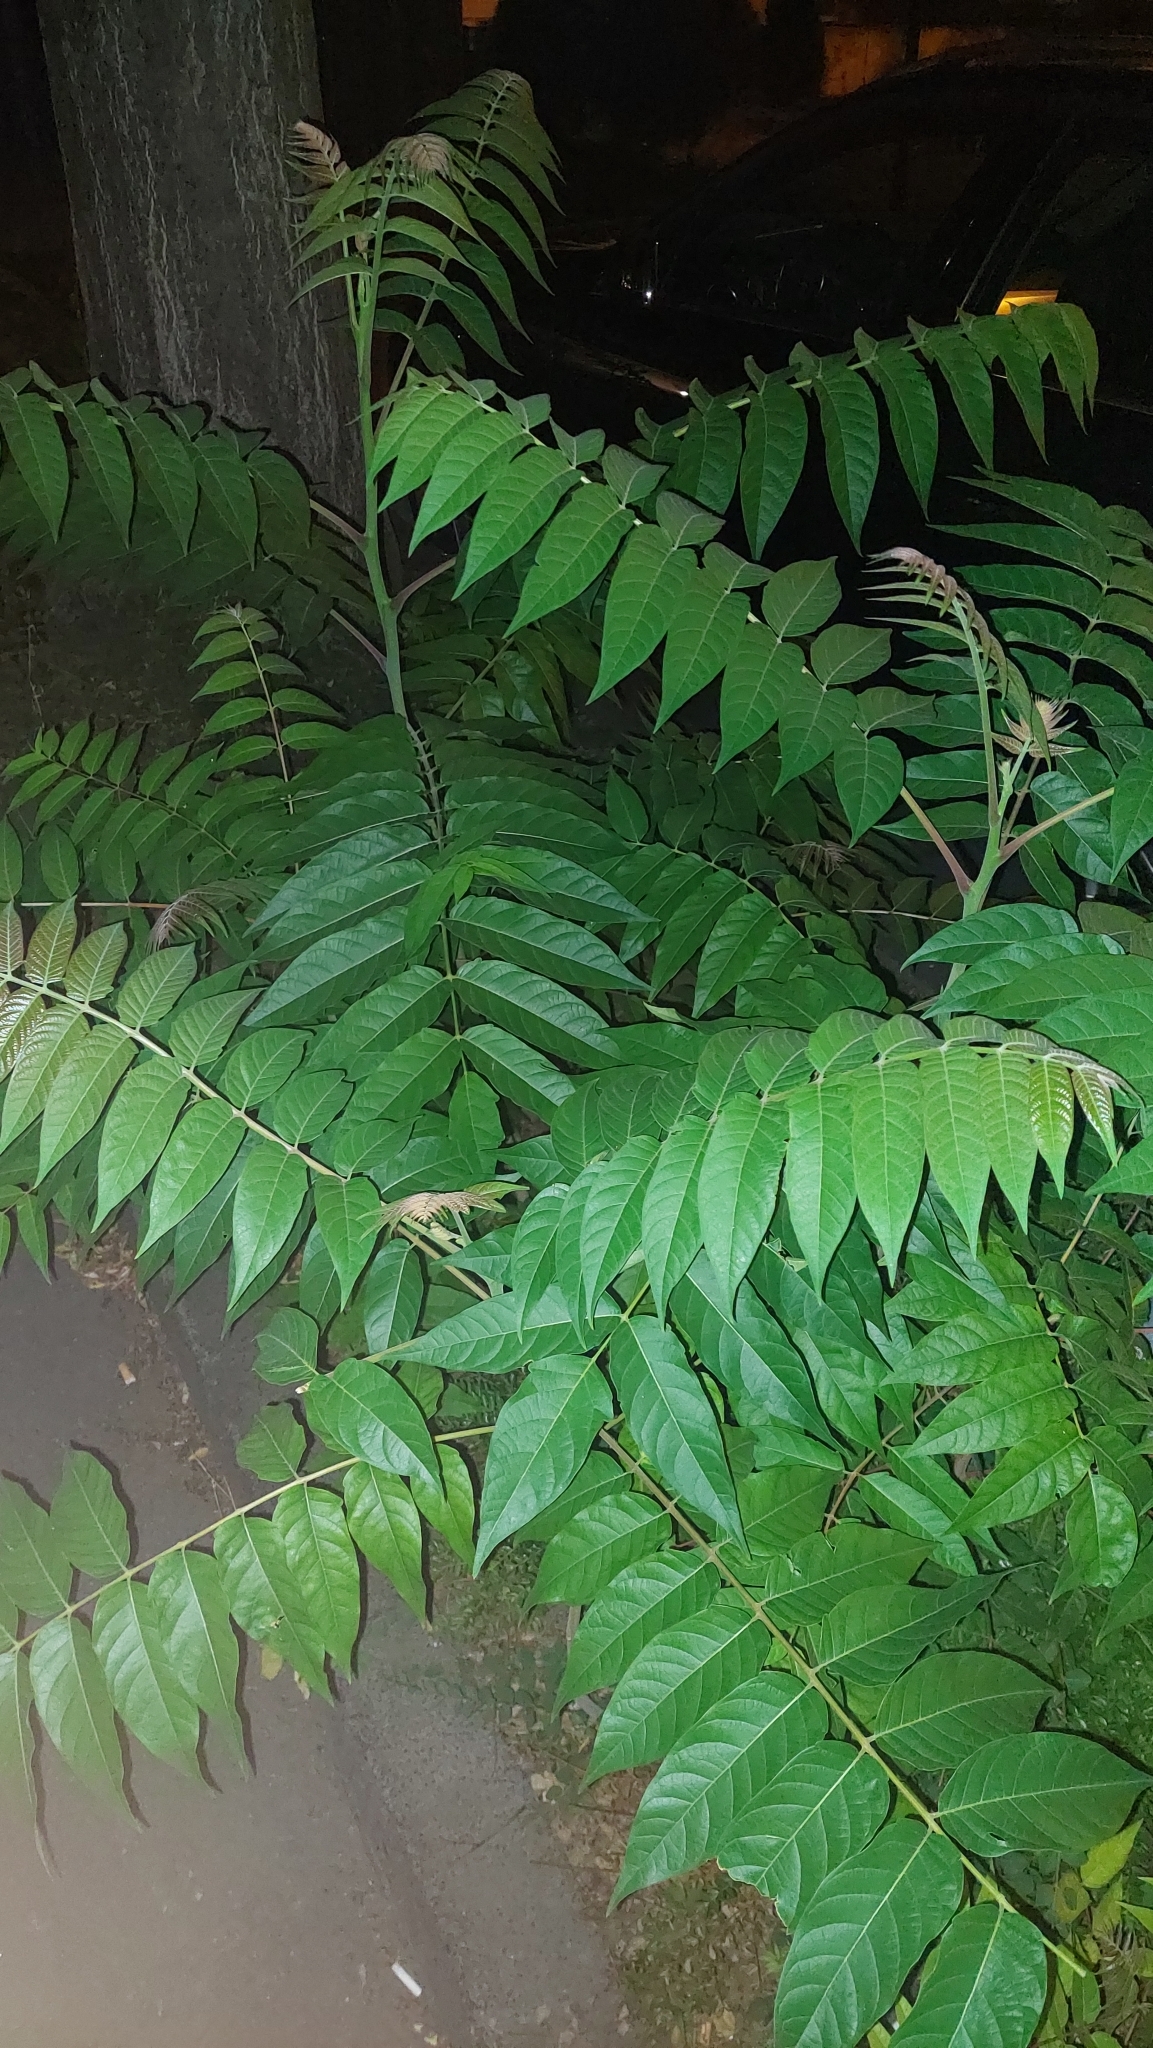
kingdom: Plantae
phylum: Tracheophyta
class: Magnoliopsida
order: Sapindales
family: Simaroubaceae
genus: Ailanthus
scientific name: Ailanthus altissima
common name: Tree-of-heaven
